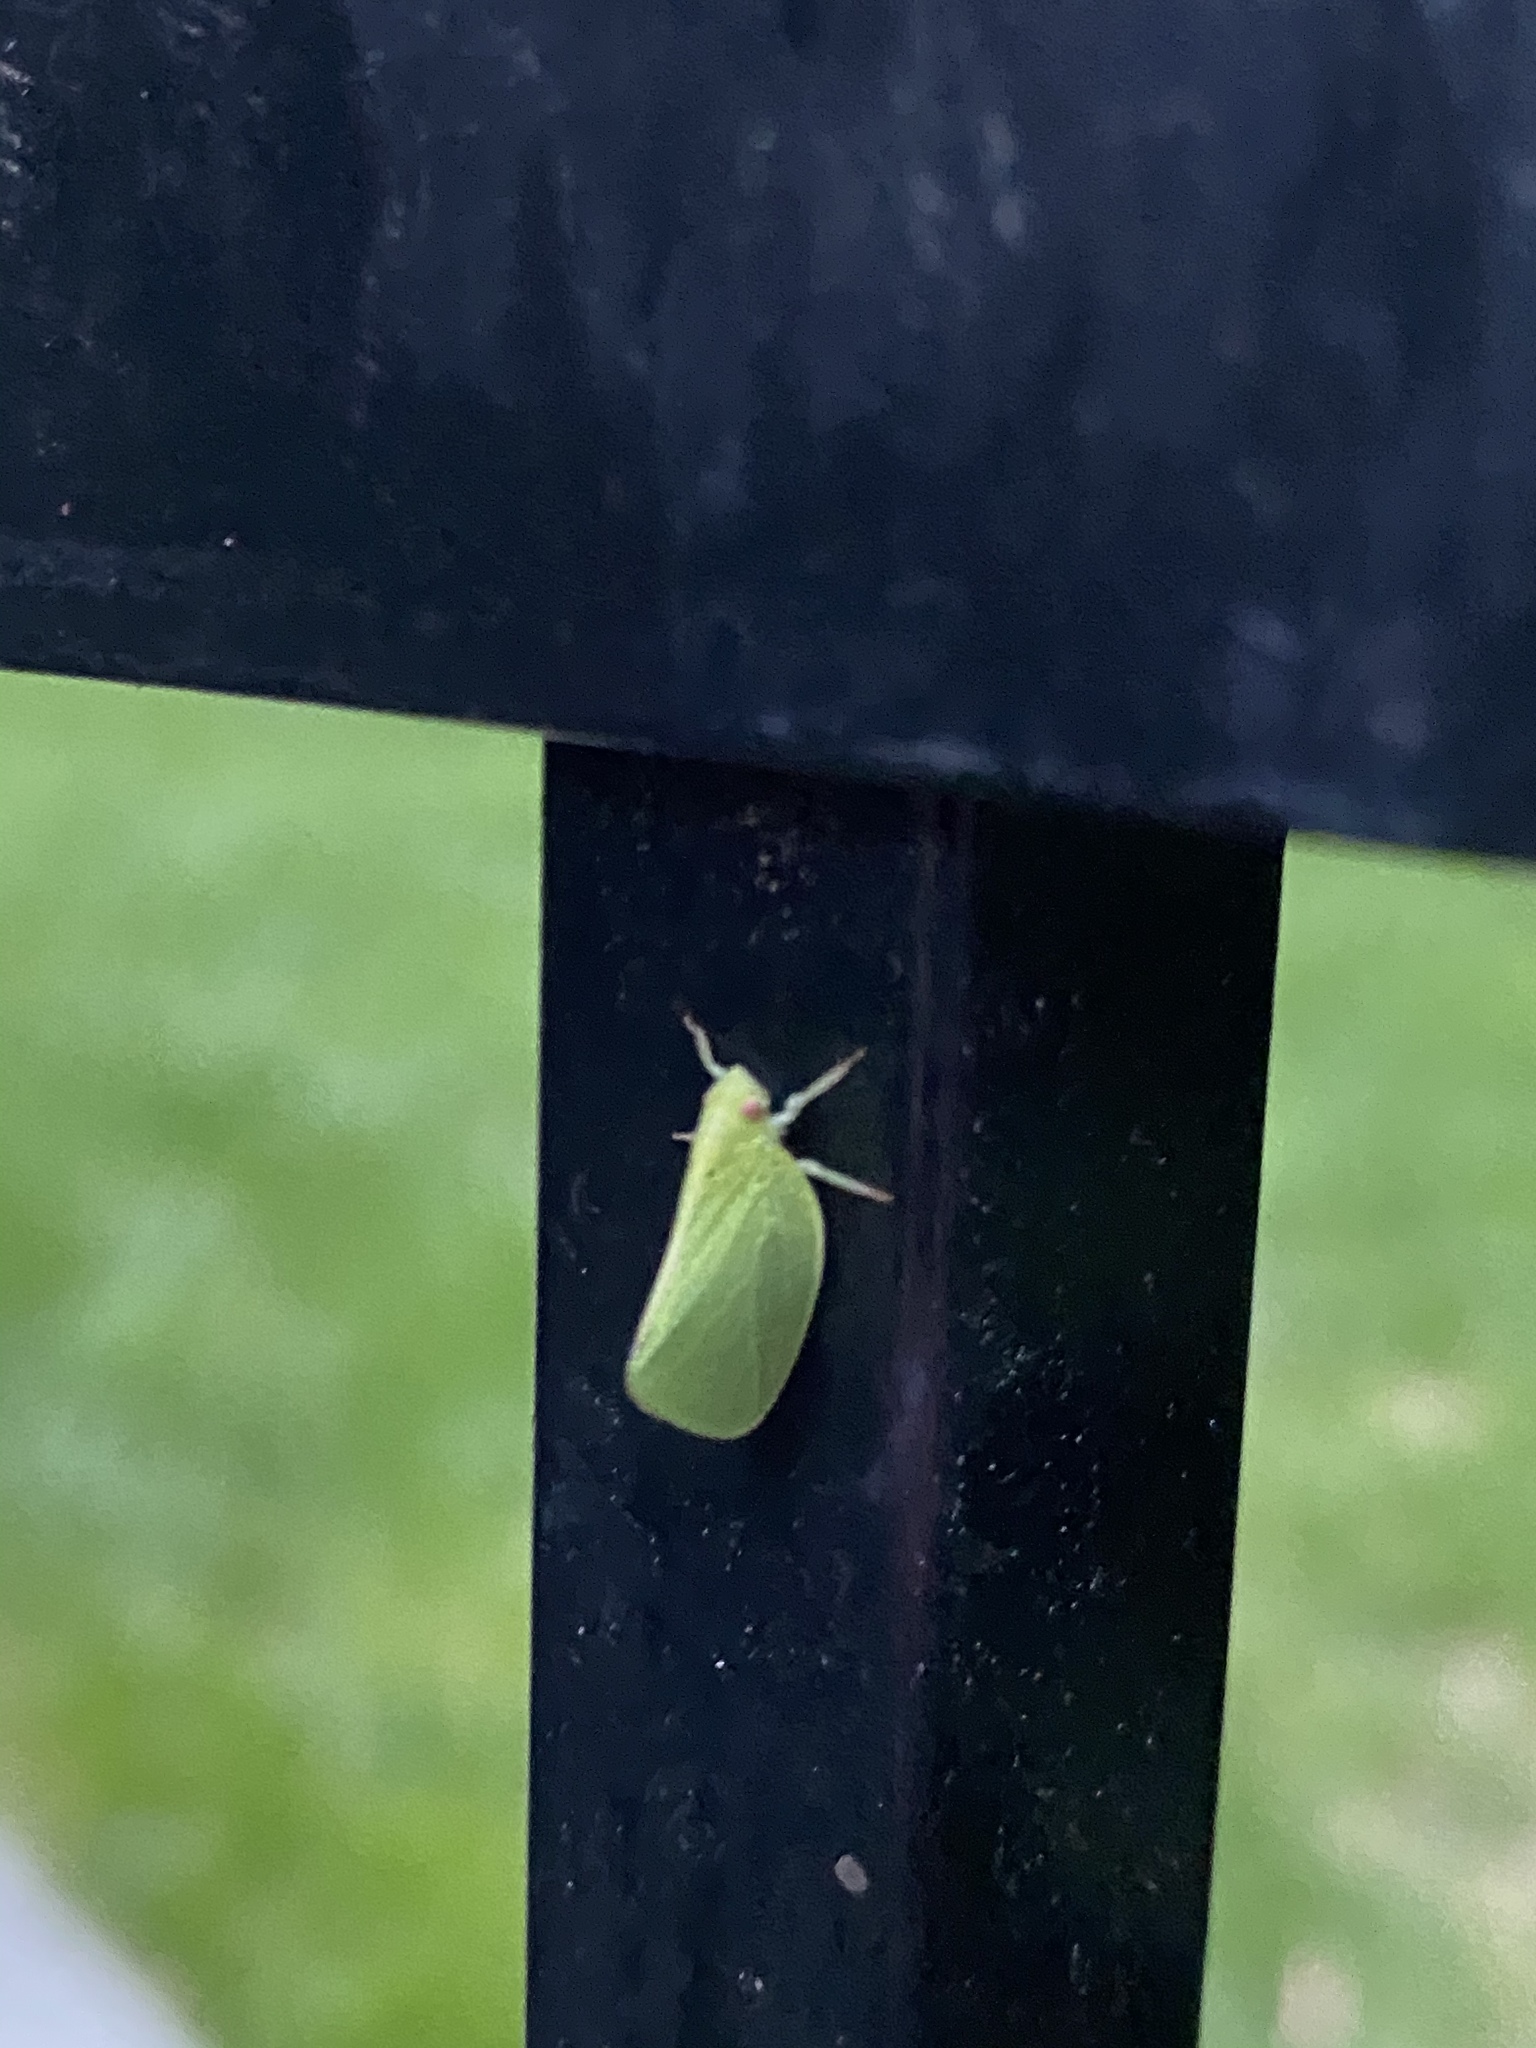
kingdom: Animalia
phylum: Arthropoda
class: Insecta
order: Hemiptera
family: Acanaloniidae
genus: Acanalonia
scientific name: Acanalonia conica
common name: Green cone-headed planthopper
